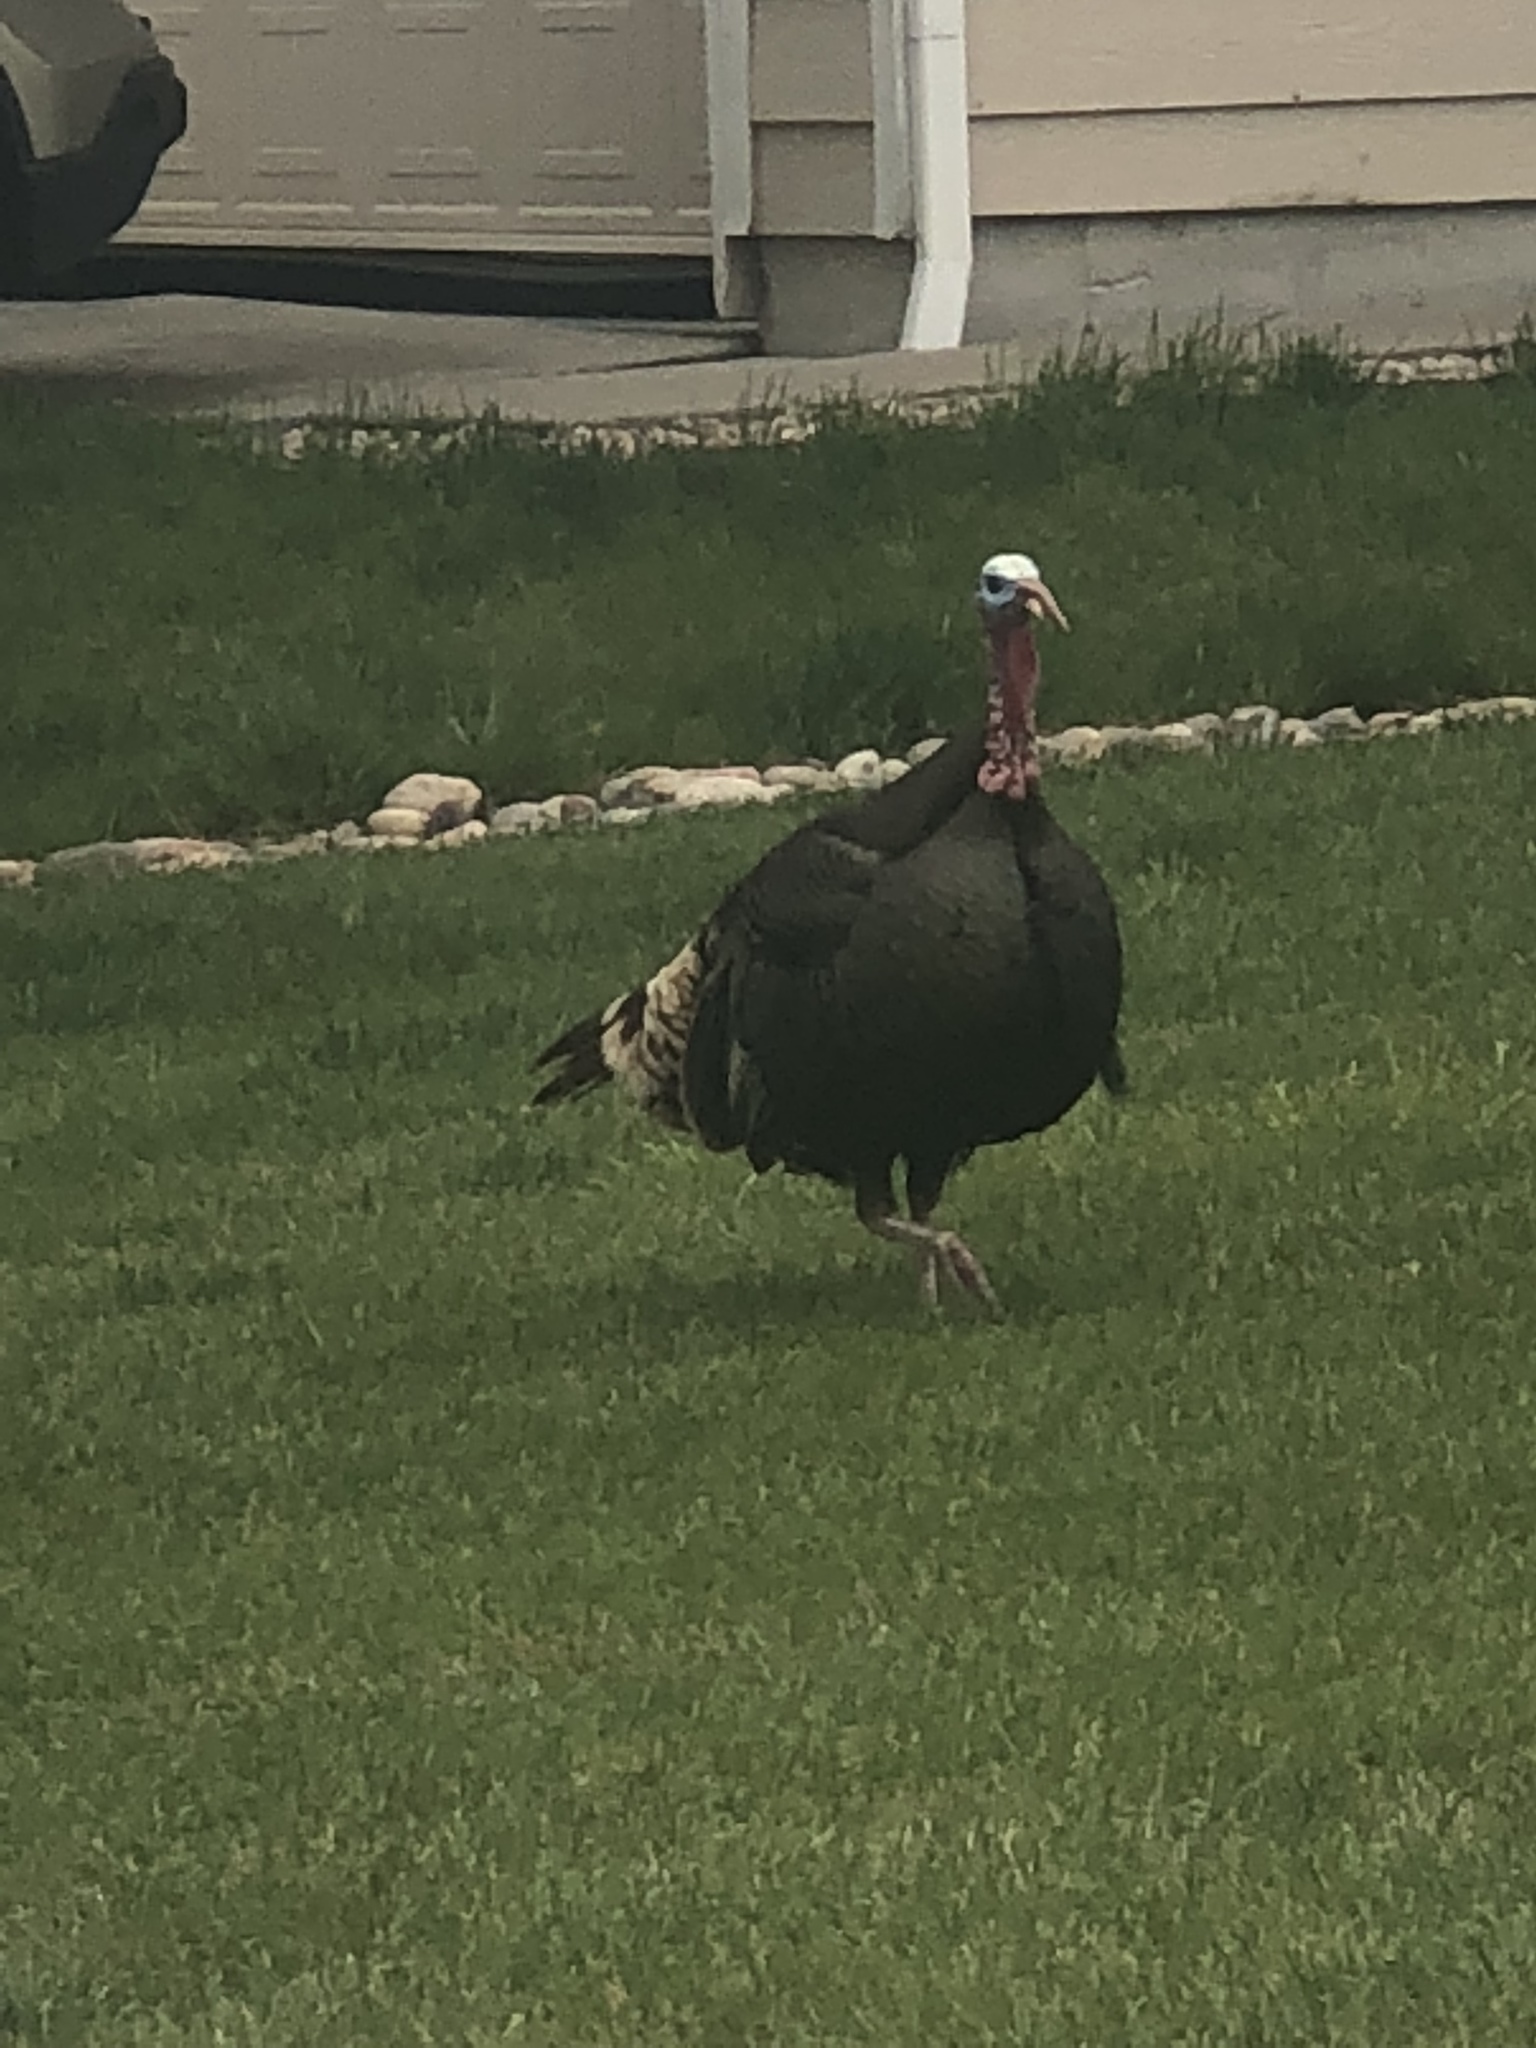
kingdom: Animalia
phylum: Chordata
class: Aves
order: Galliformes
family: Phasianidae
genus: Meleagris
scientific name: Meleagris gallopavo
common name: Wild turkey
